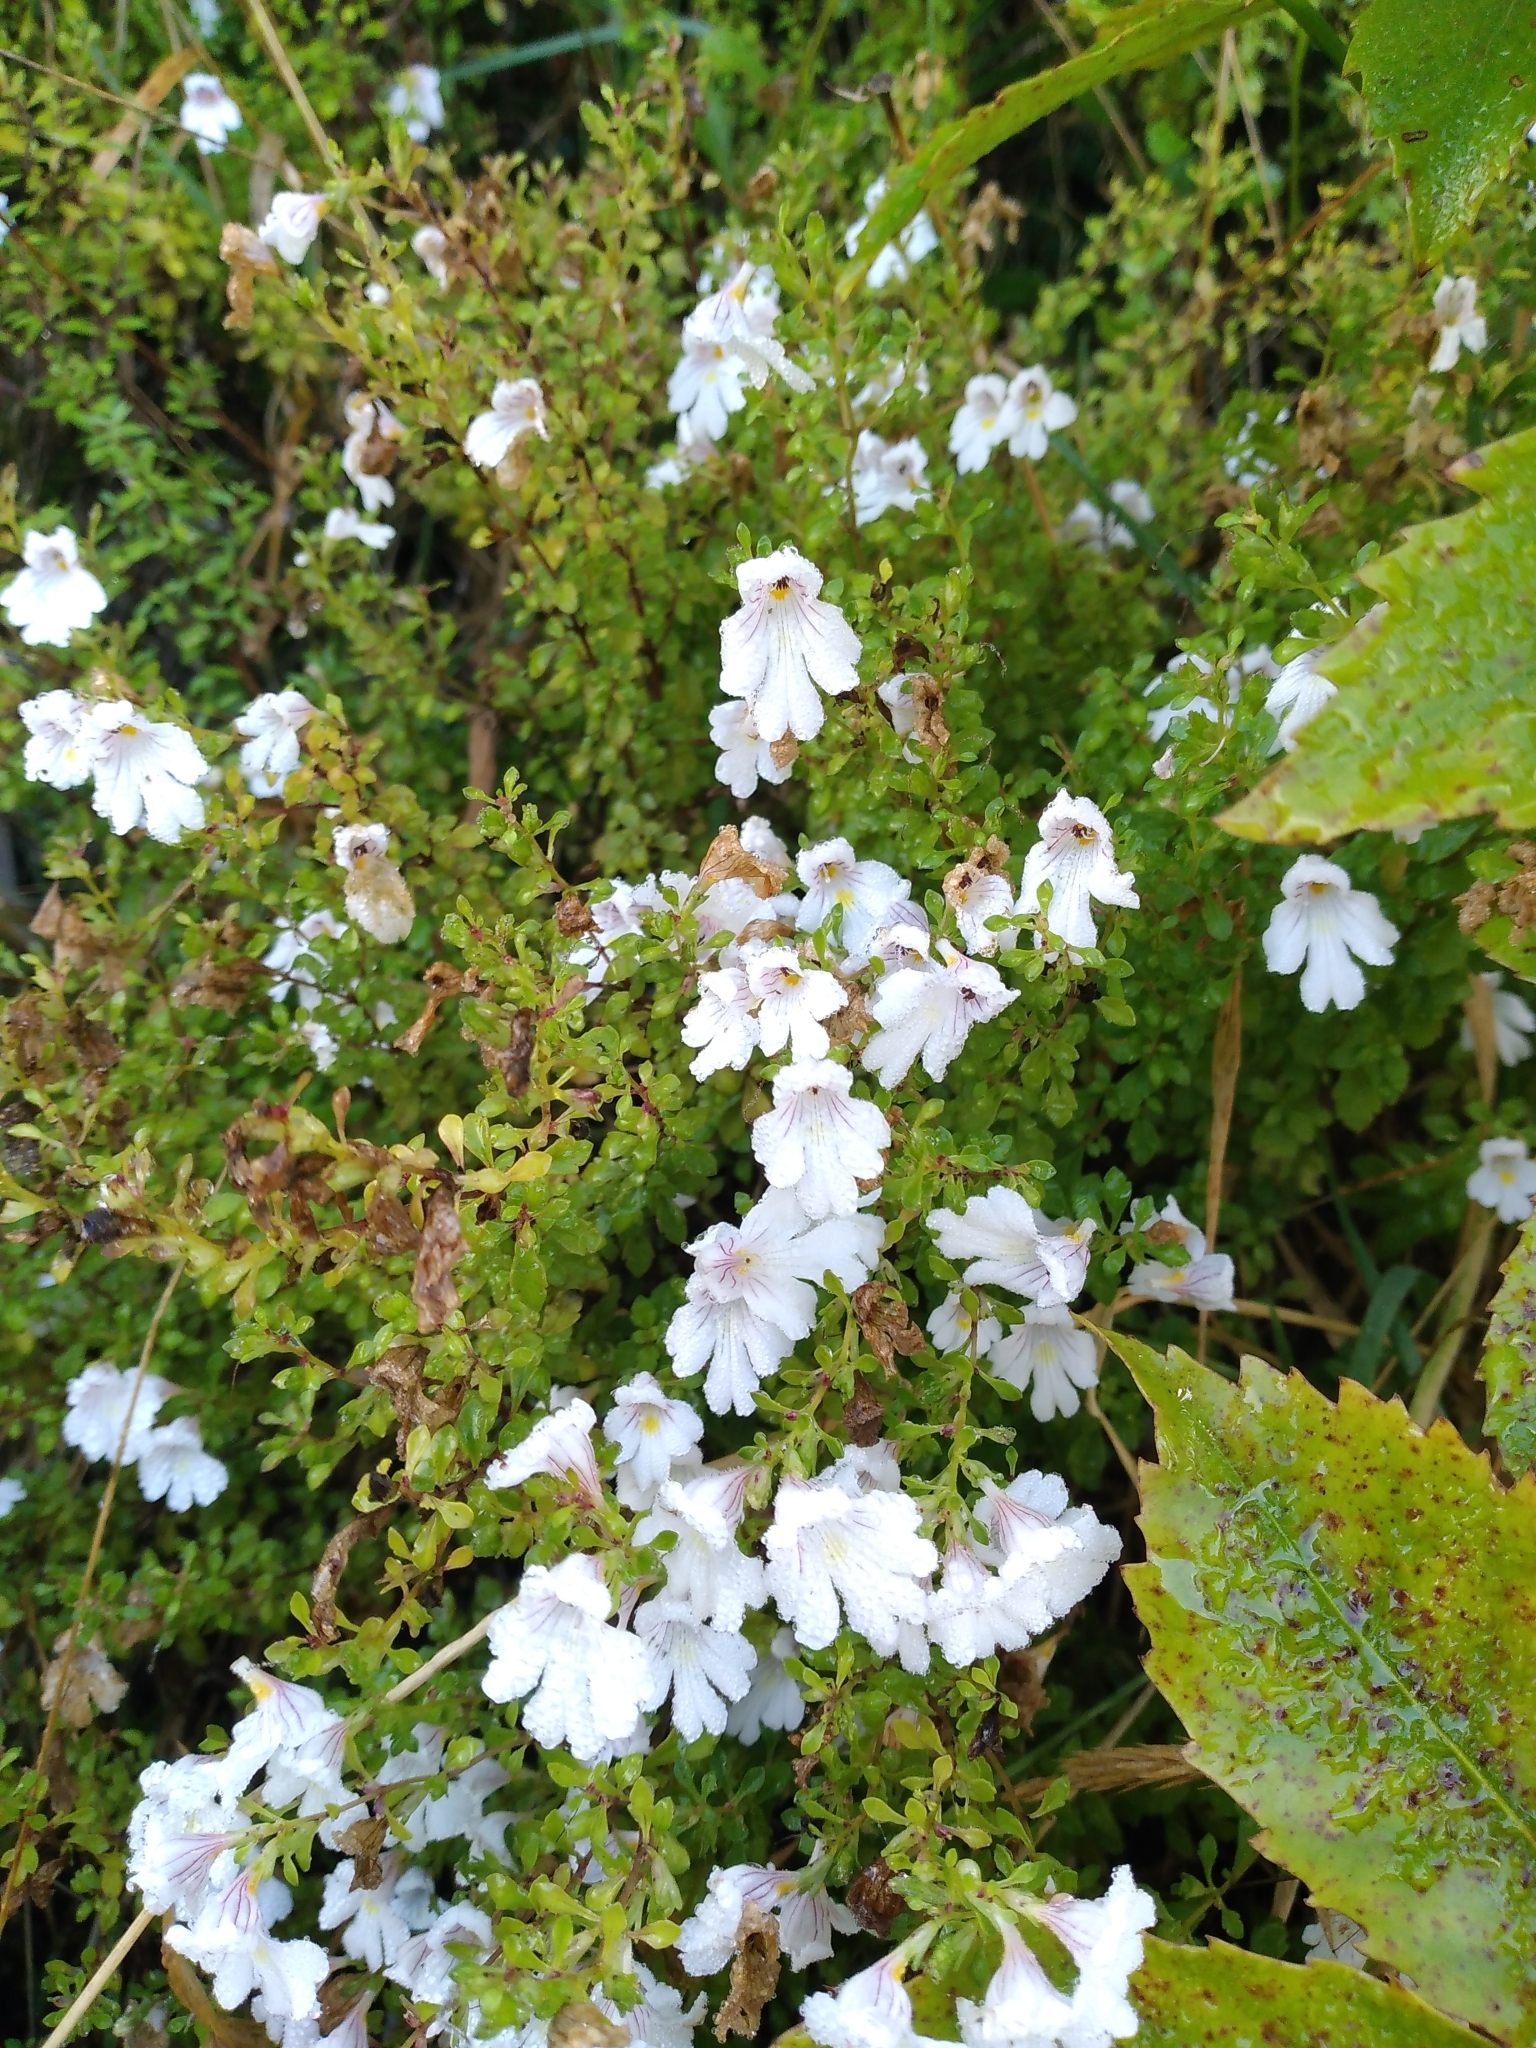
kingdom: Plantae
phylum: Tracheophyta
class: Magnoliopsida
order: Lamiales
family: Orobanchaceae
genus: Euphrasia
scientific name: Euphrasia cuneata
